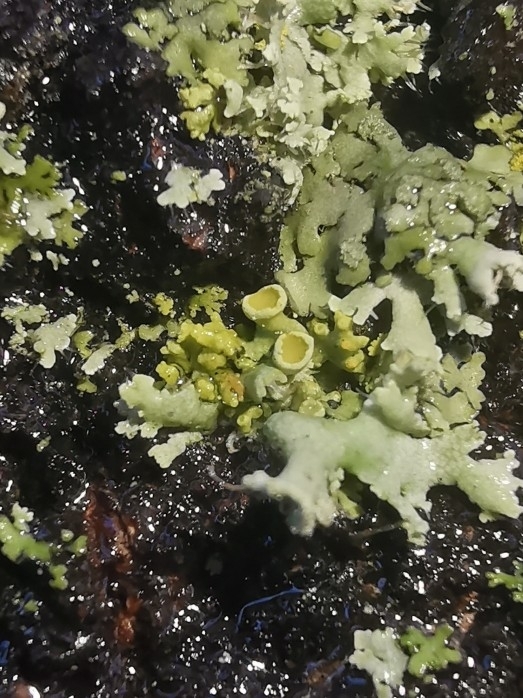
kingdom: Fungi
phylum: Ascomycota
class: Lecanoromycetes
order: Teloschistales
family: Teloschistaceae
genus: Polycauliona
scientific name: Polycauliona polycarpa
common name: Pin-cushion sunburst lichen
